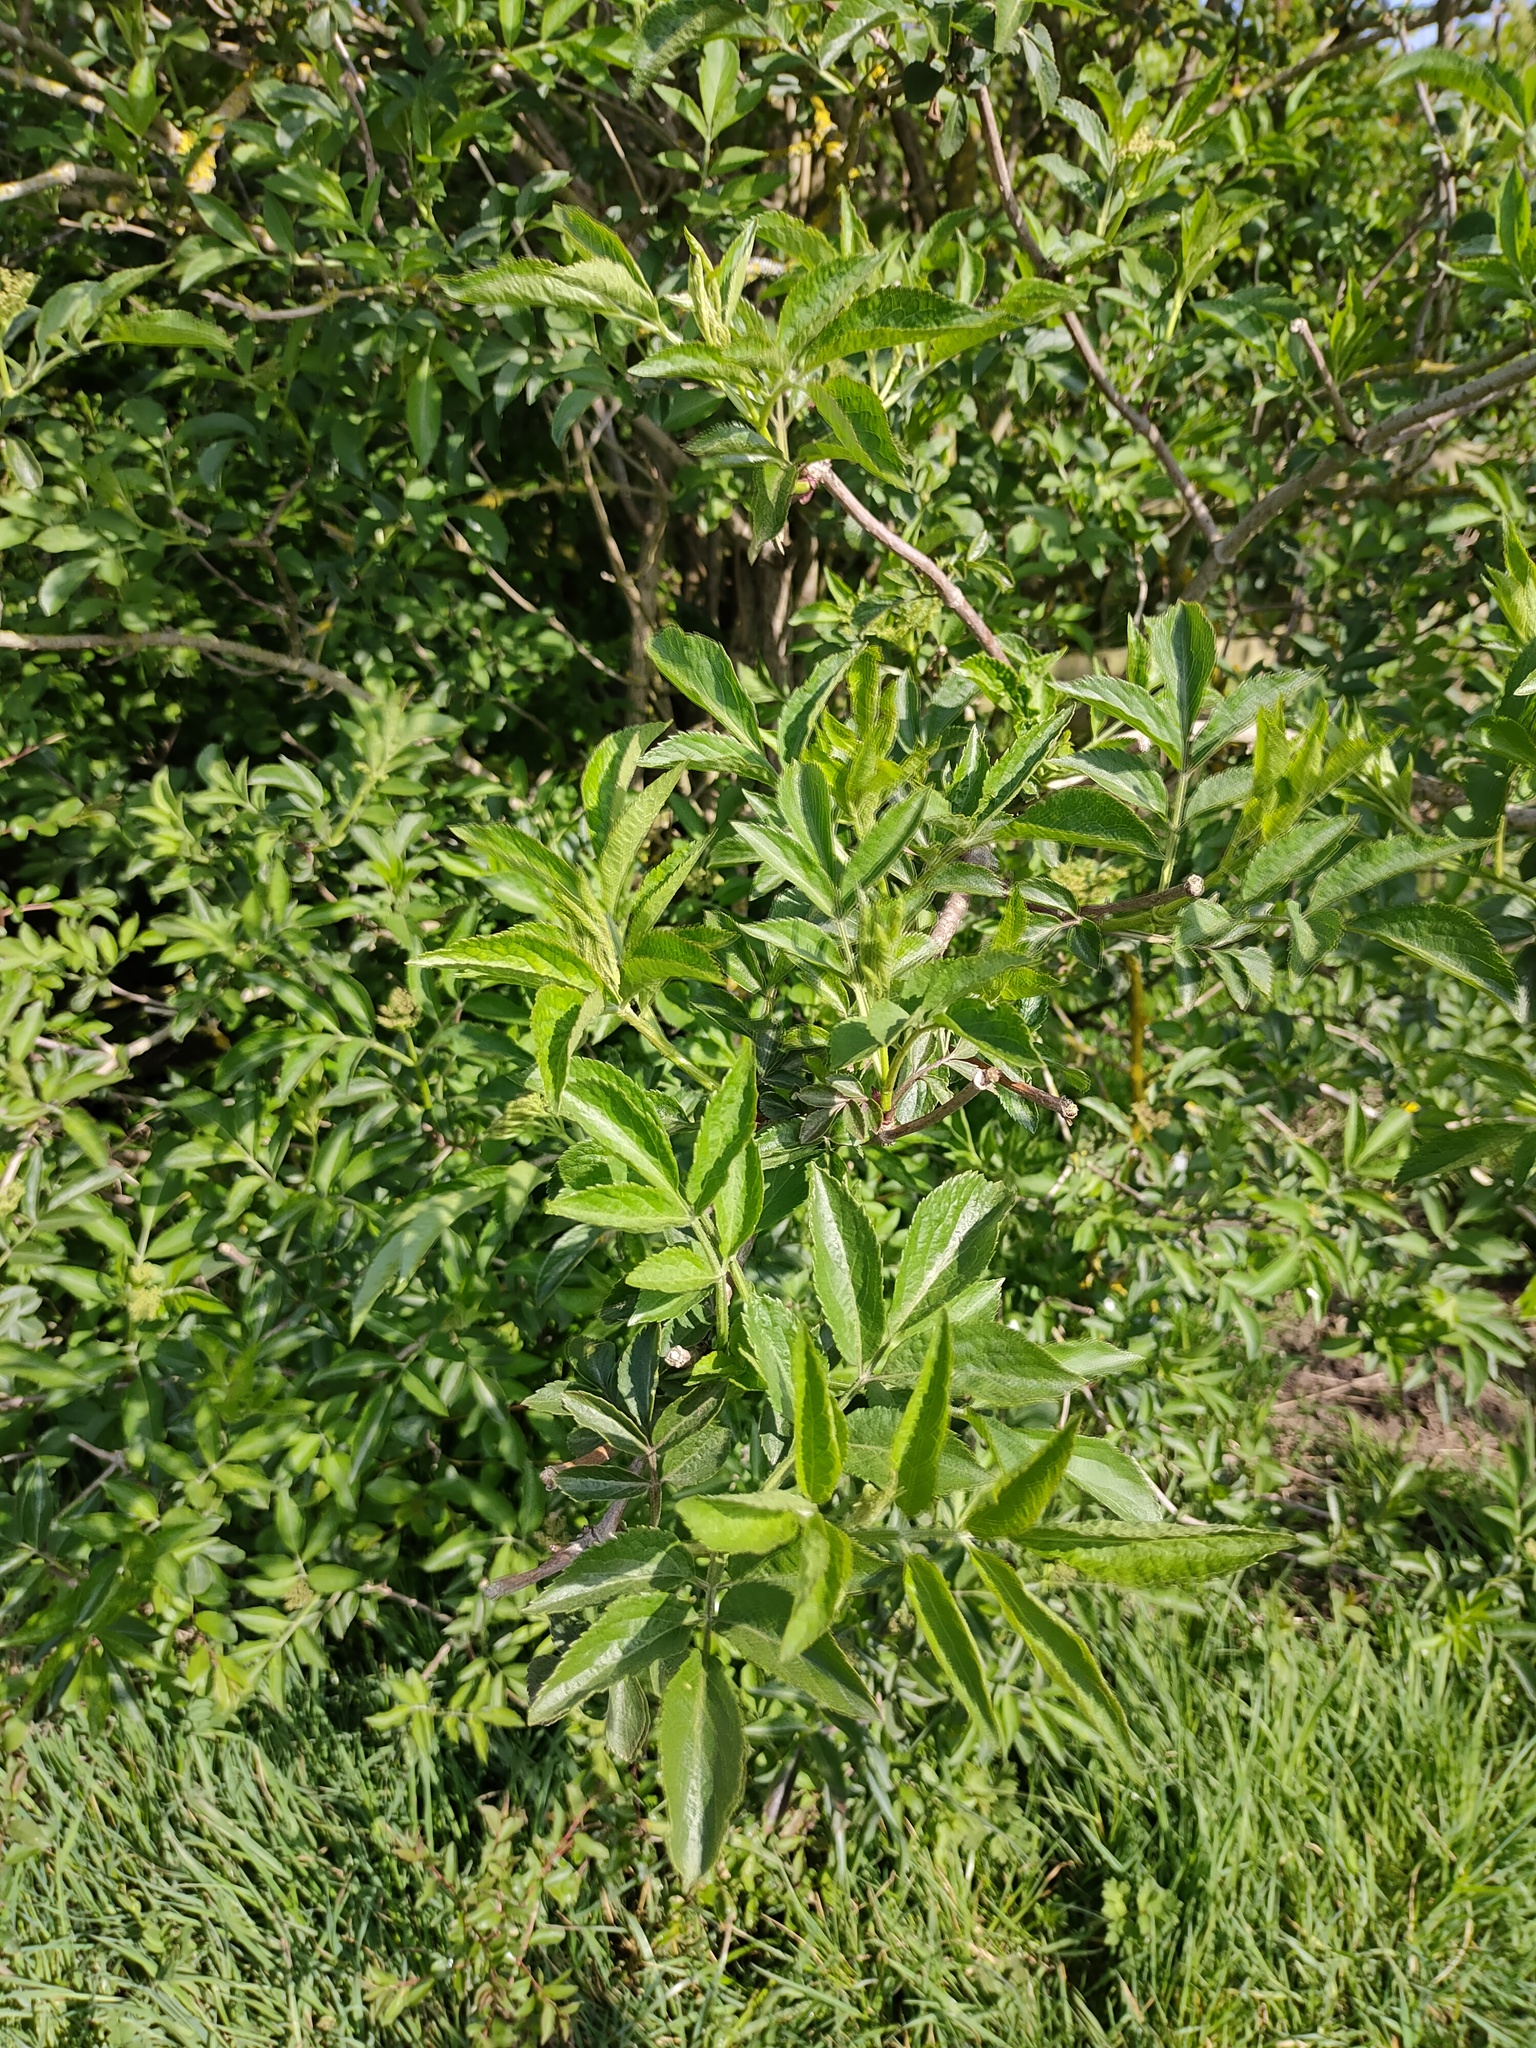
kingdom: Plantae
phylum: Tracheophyta
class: Magnoliopsida
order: Dipsacales
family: Viburnaceae
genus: Sambucus
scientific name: Sambucus nigra
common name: Elder
